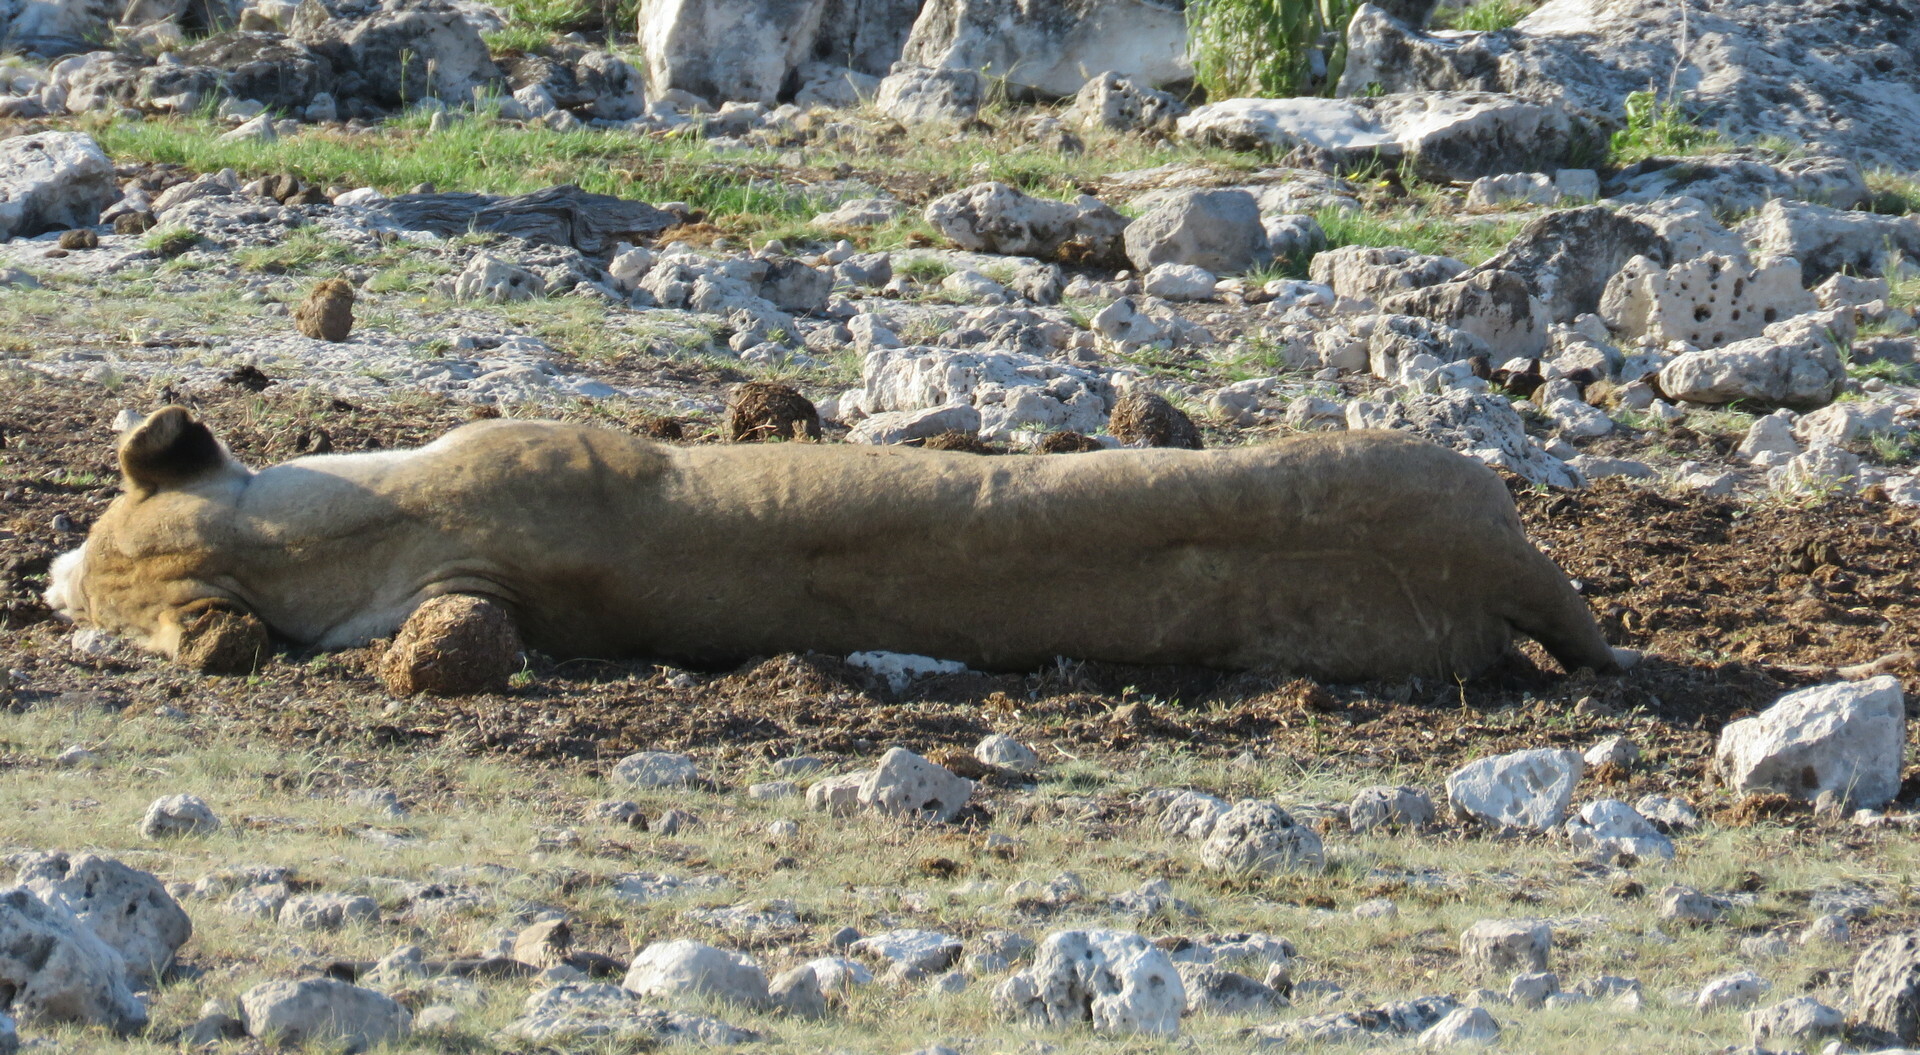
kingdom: Animalia
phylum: Chordata
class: Mammalia
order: Carnivora
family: Felidae
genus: Panthera
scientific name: Panthera leo
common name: Lion
